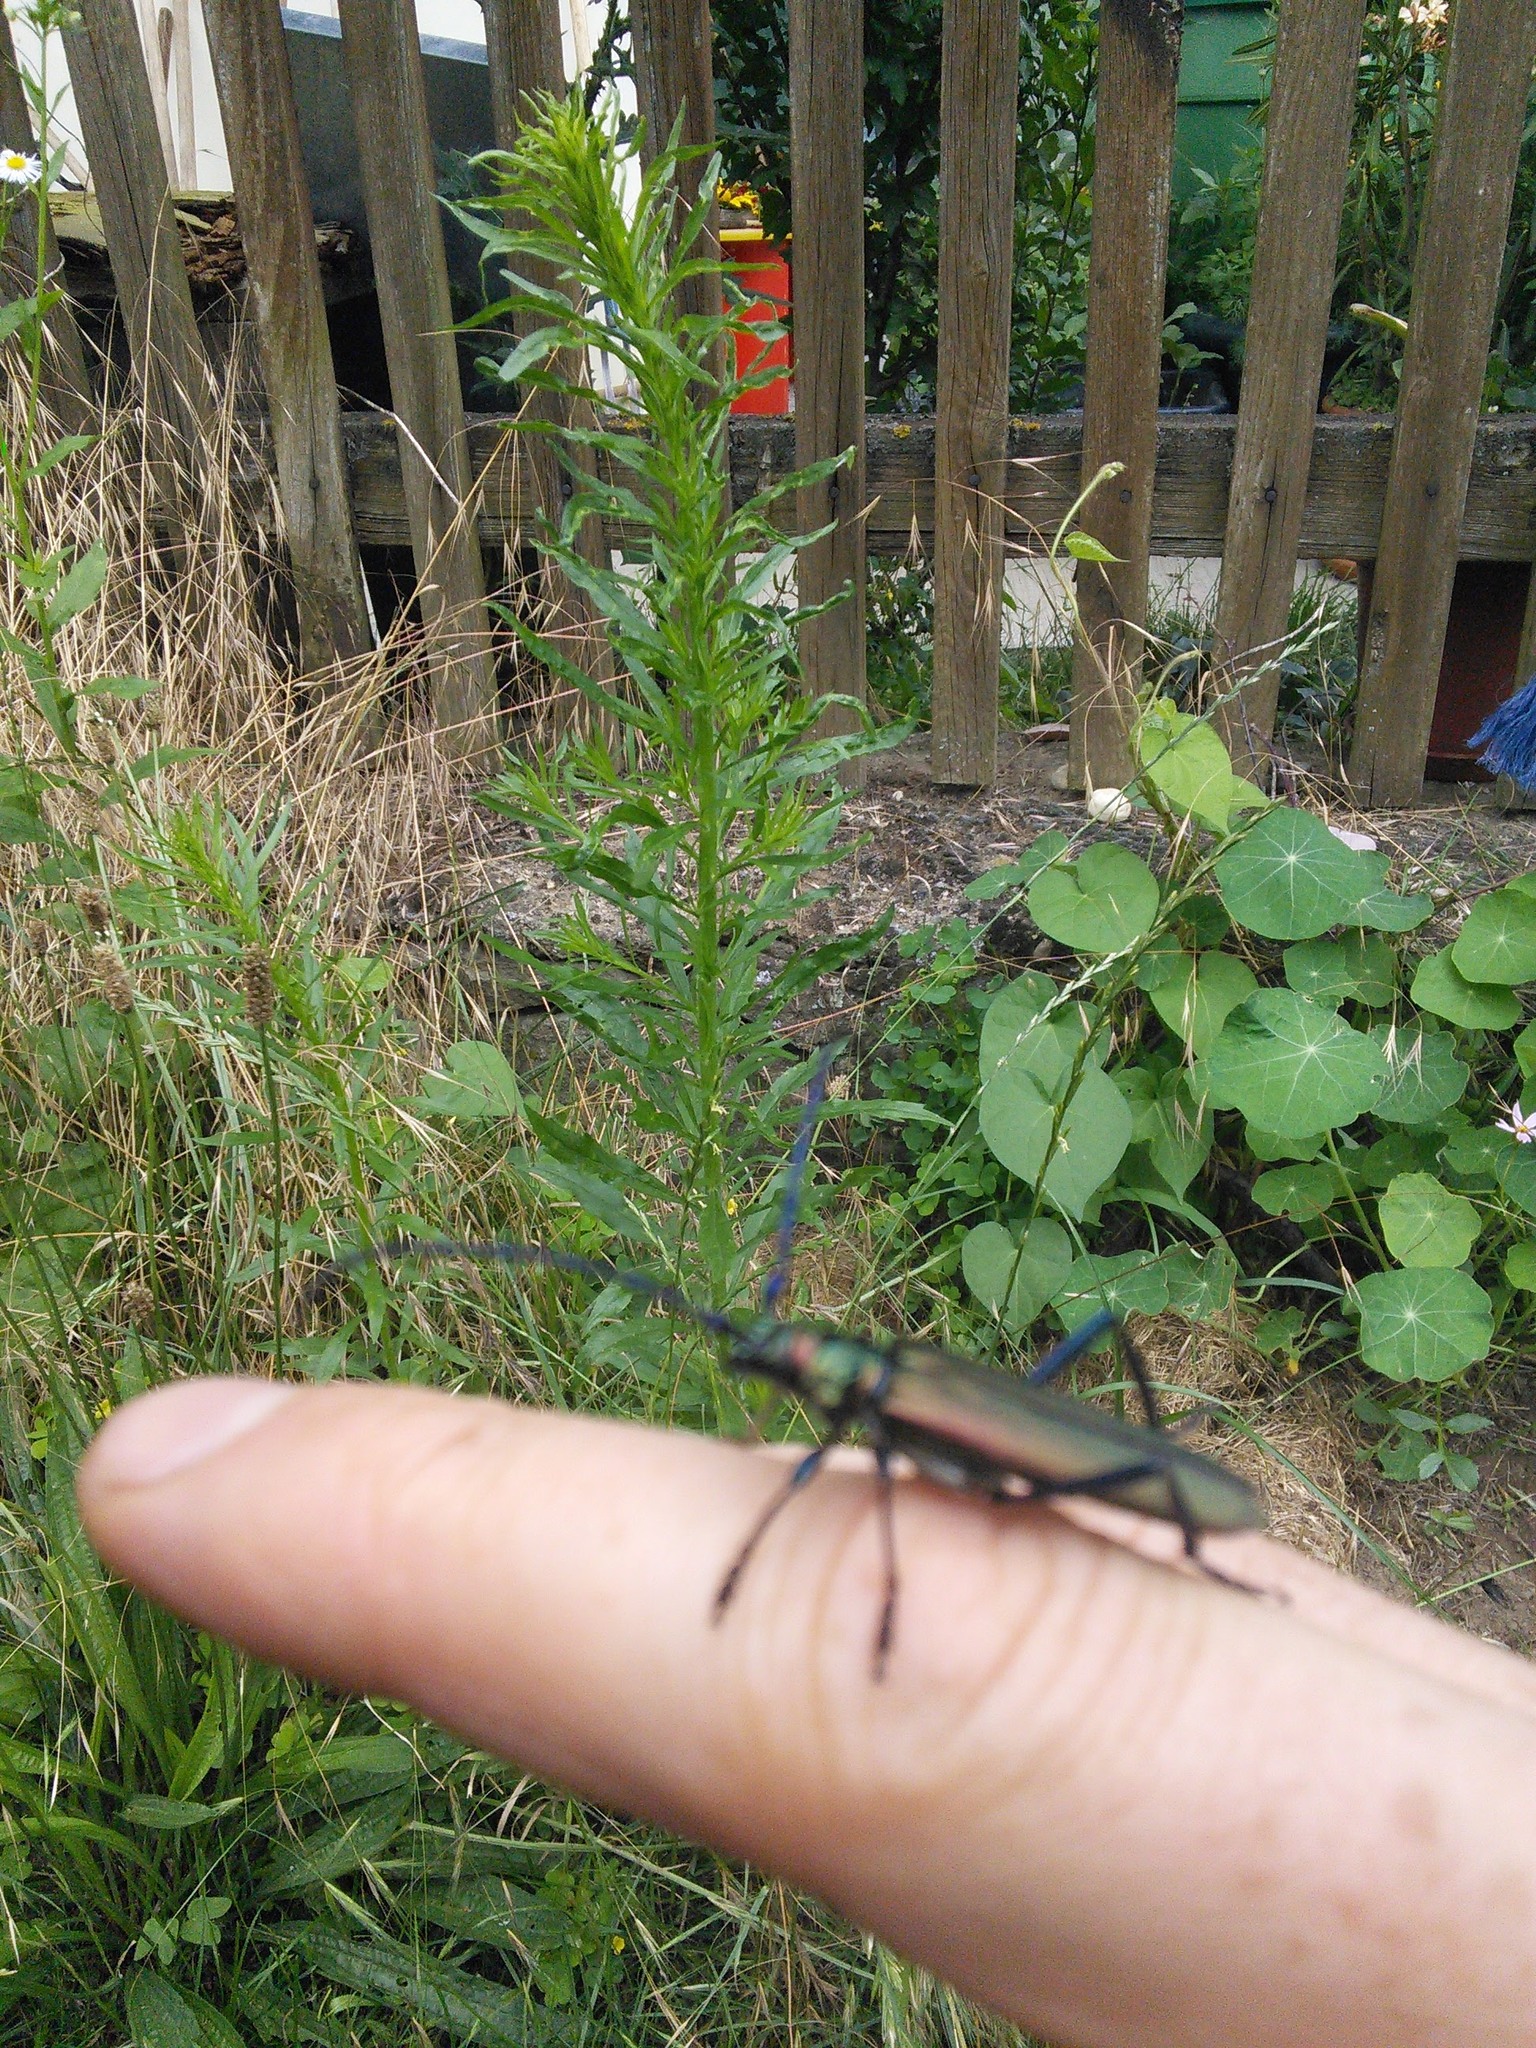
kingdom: Animalia
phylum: Arthropoda
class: Insecta
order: Coleoptera
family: Cerambycidae
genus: Aromia
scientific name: Aromia moschata
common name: Musk beetle
